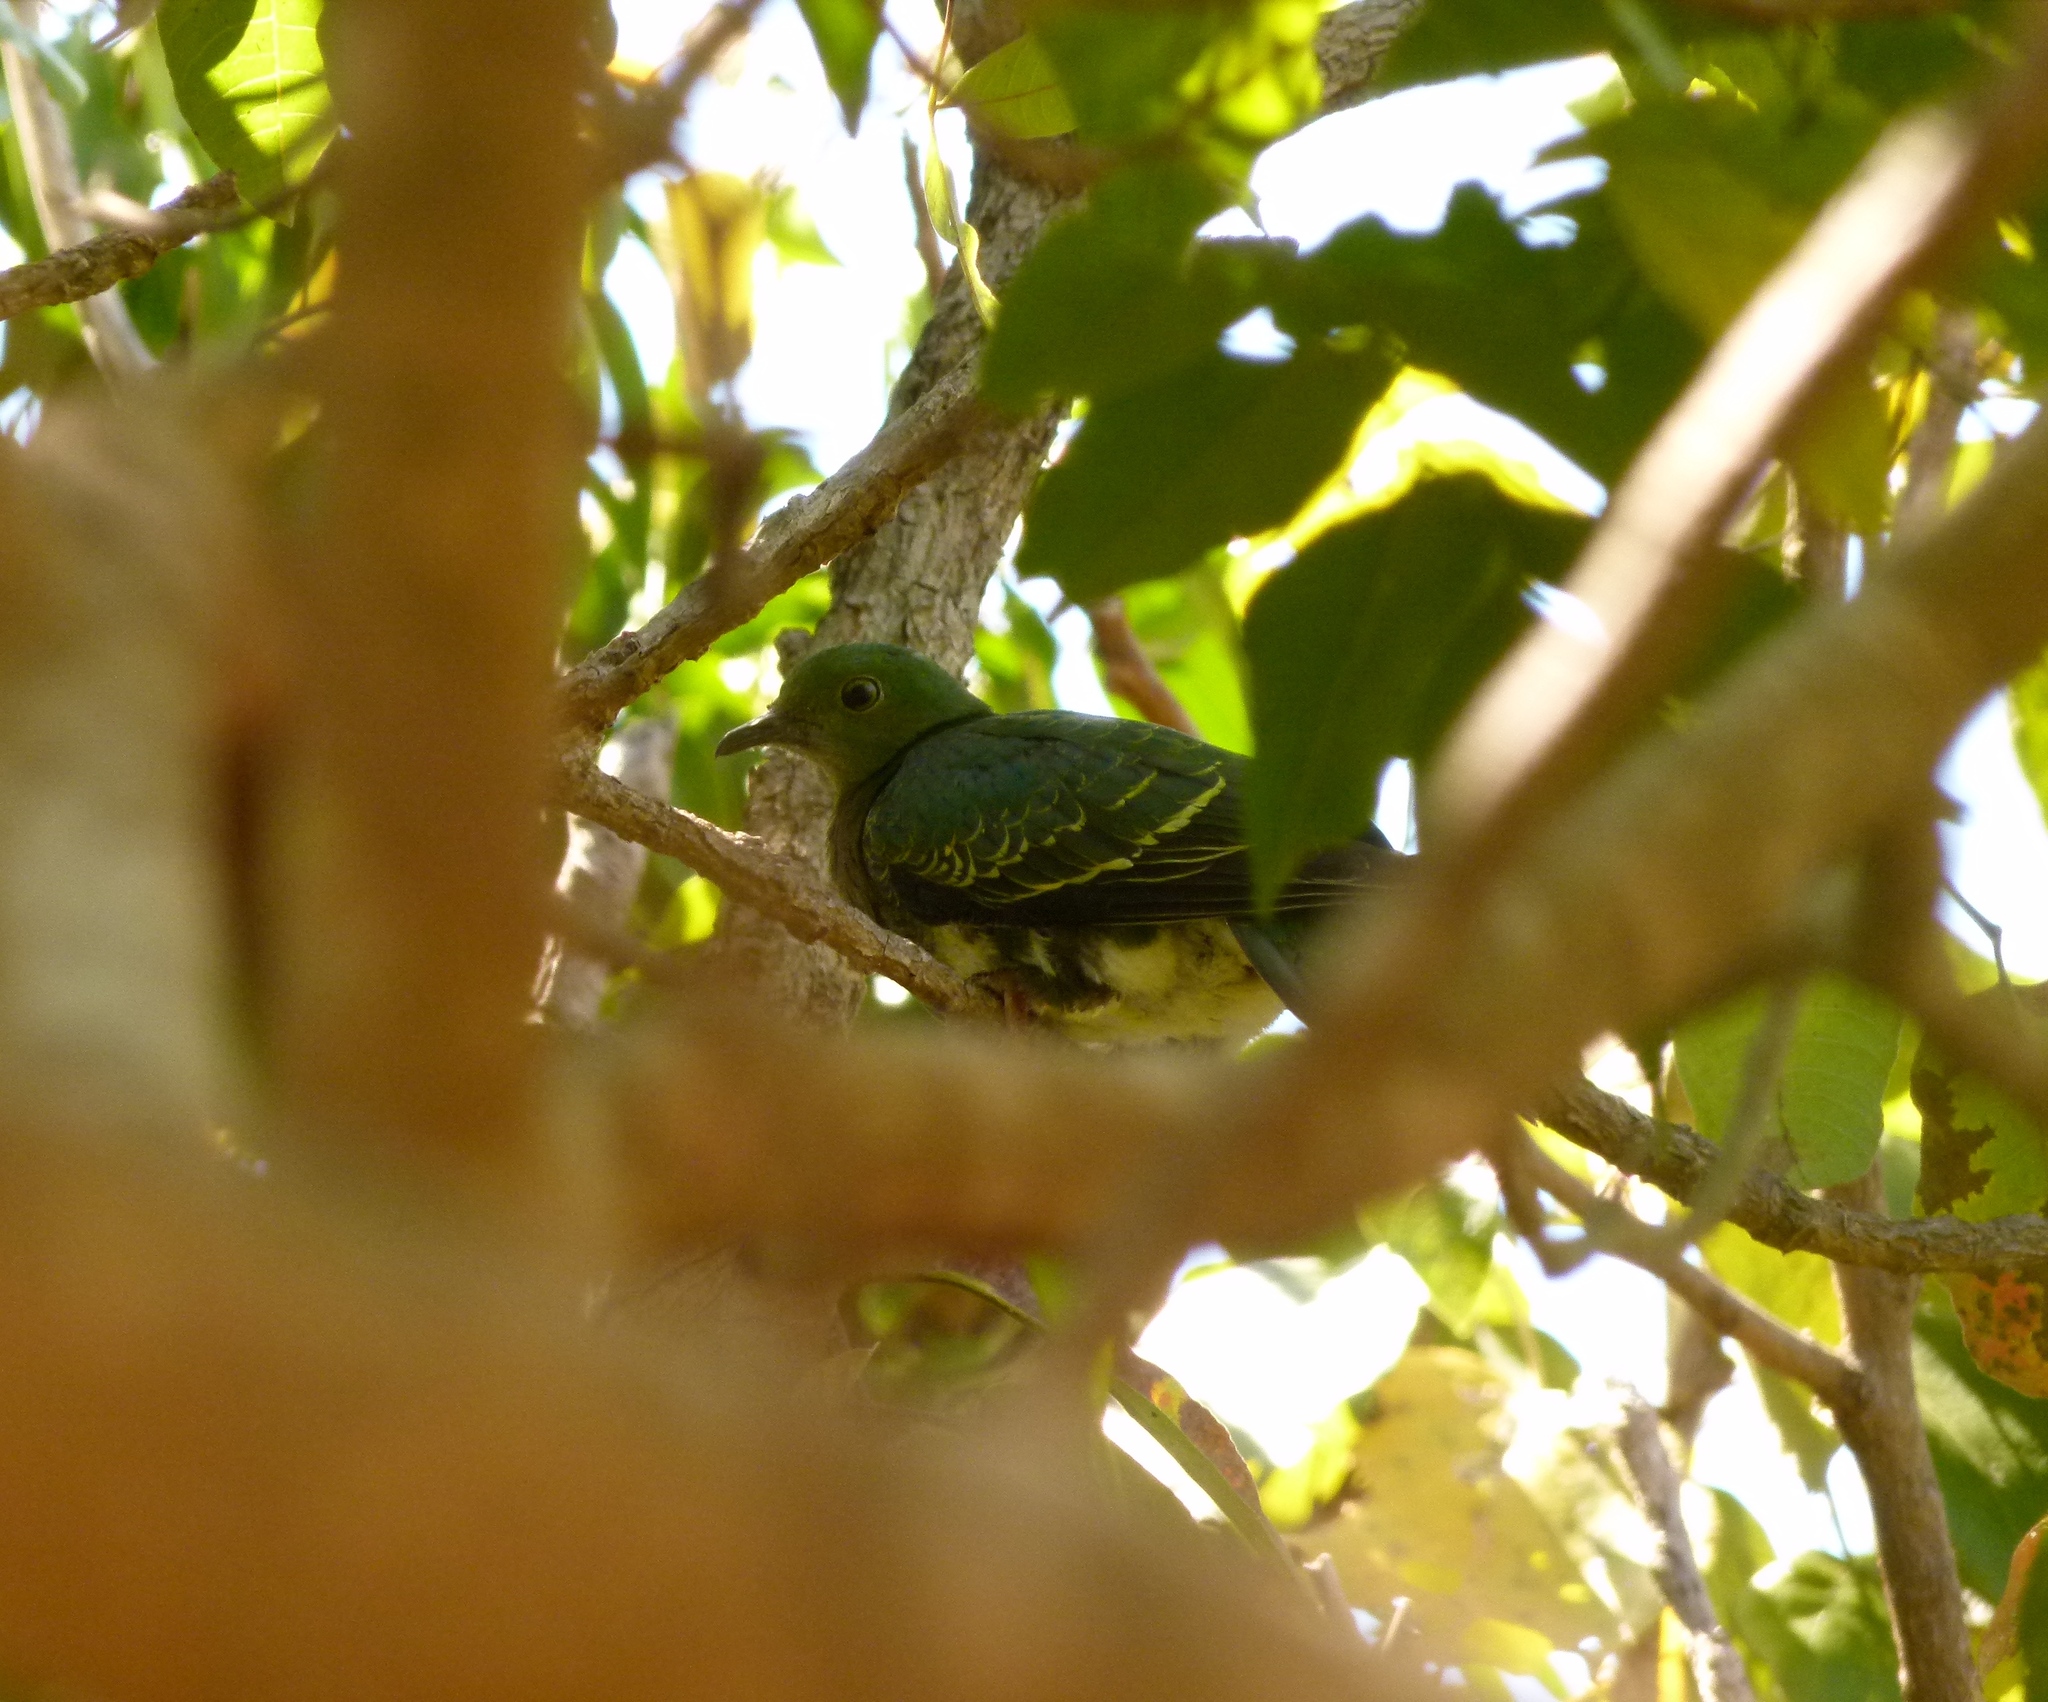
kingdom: Animalia
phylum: Chordata
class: Aves
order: Columbiformes
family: Columbidae
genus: Ptilinopus
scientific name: Ptilinopus superbus
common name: Superb fruit dove
